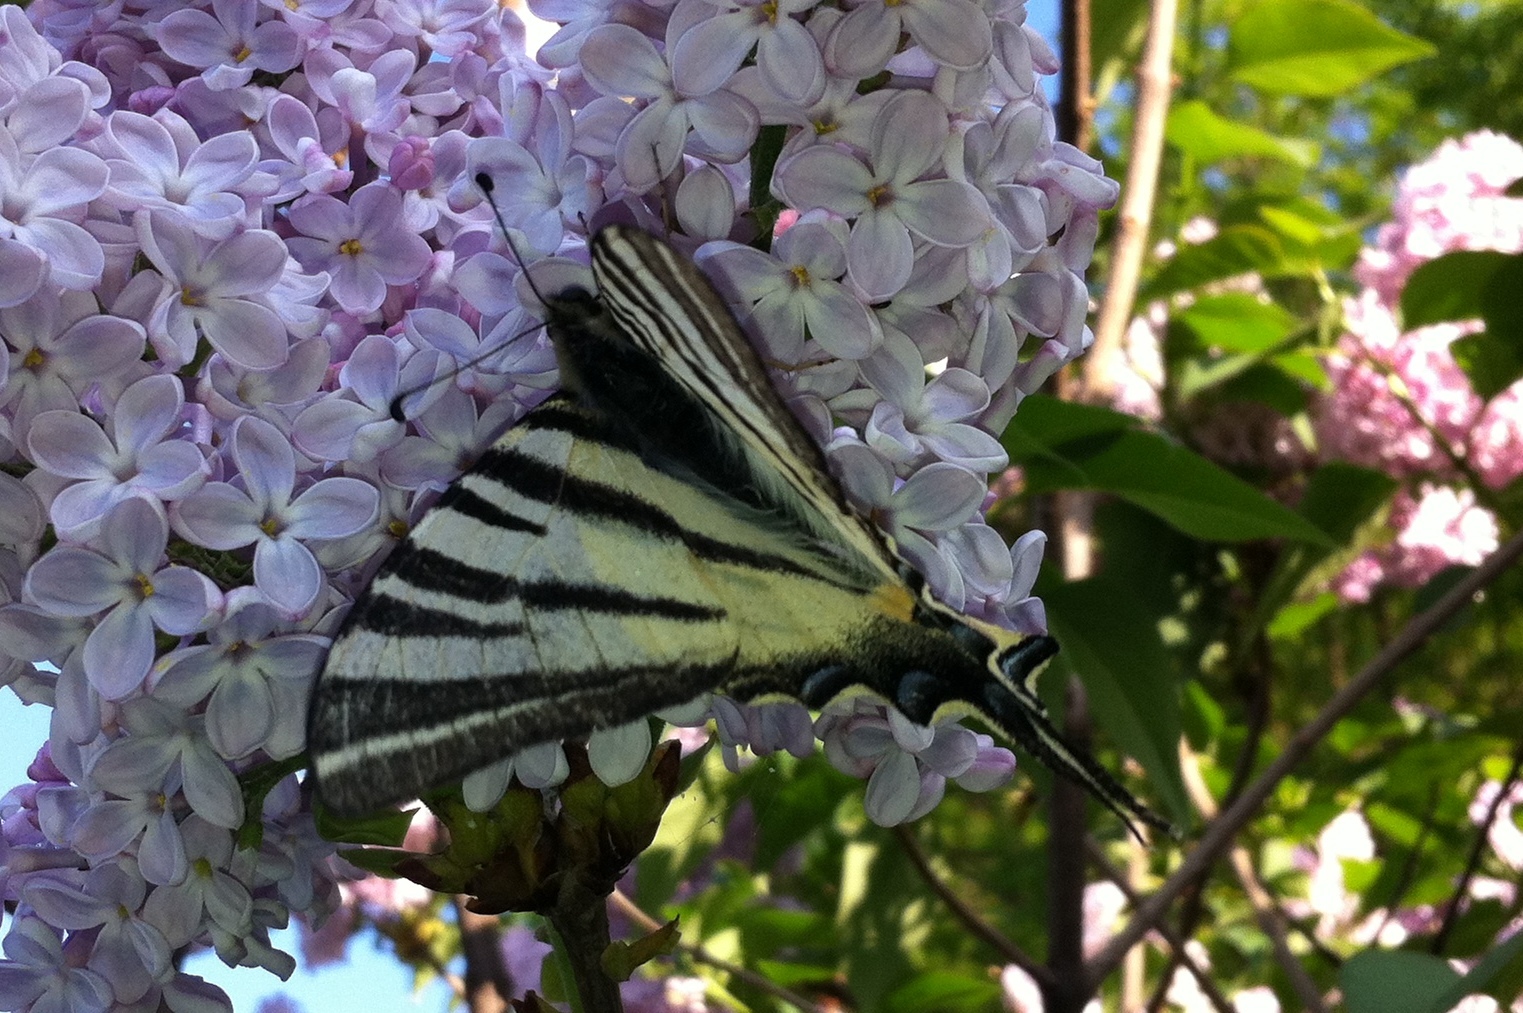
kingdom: Animalia
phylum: Arthropoda
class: Insecta
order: Lepidoptera
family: Papilionidae
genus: Iphiclides
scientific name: Iphiclides podalirius
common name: Scarce swallowtail
